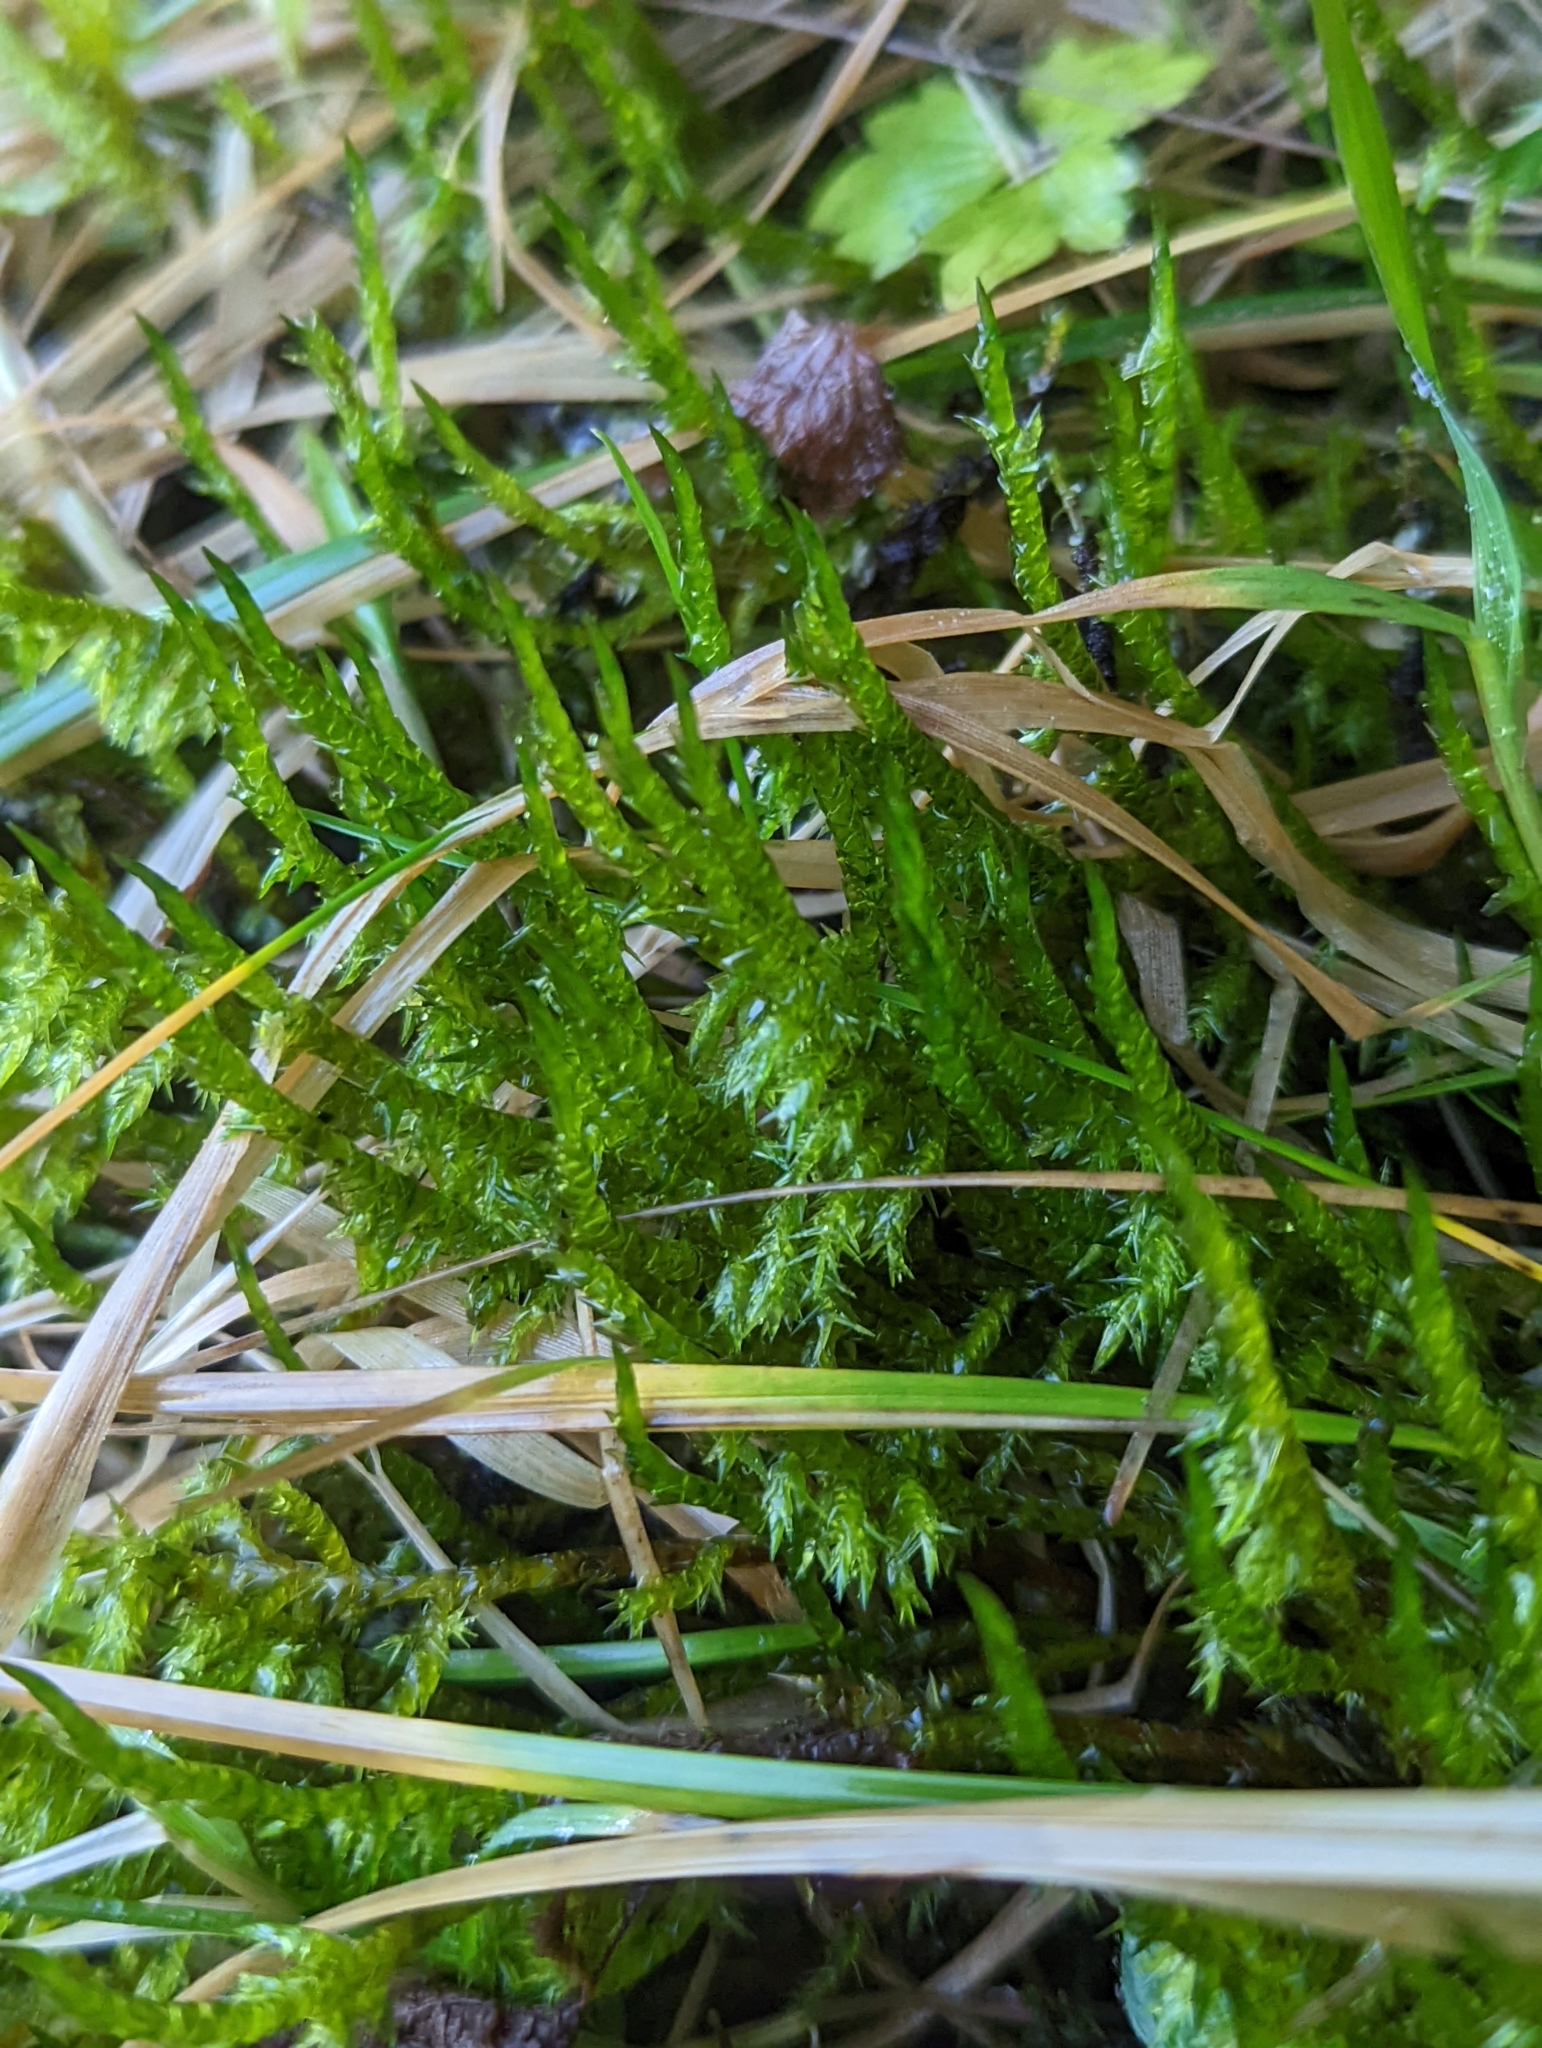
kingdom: Plantae
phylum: Bryophyta
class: Bryopsida
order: Hypnales
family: Pylaisiaceae
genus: Calliergonella
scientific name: Calliergonella cuspidata
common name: Common large wetland moss
